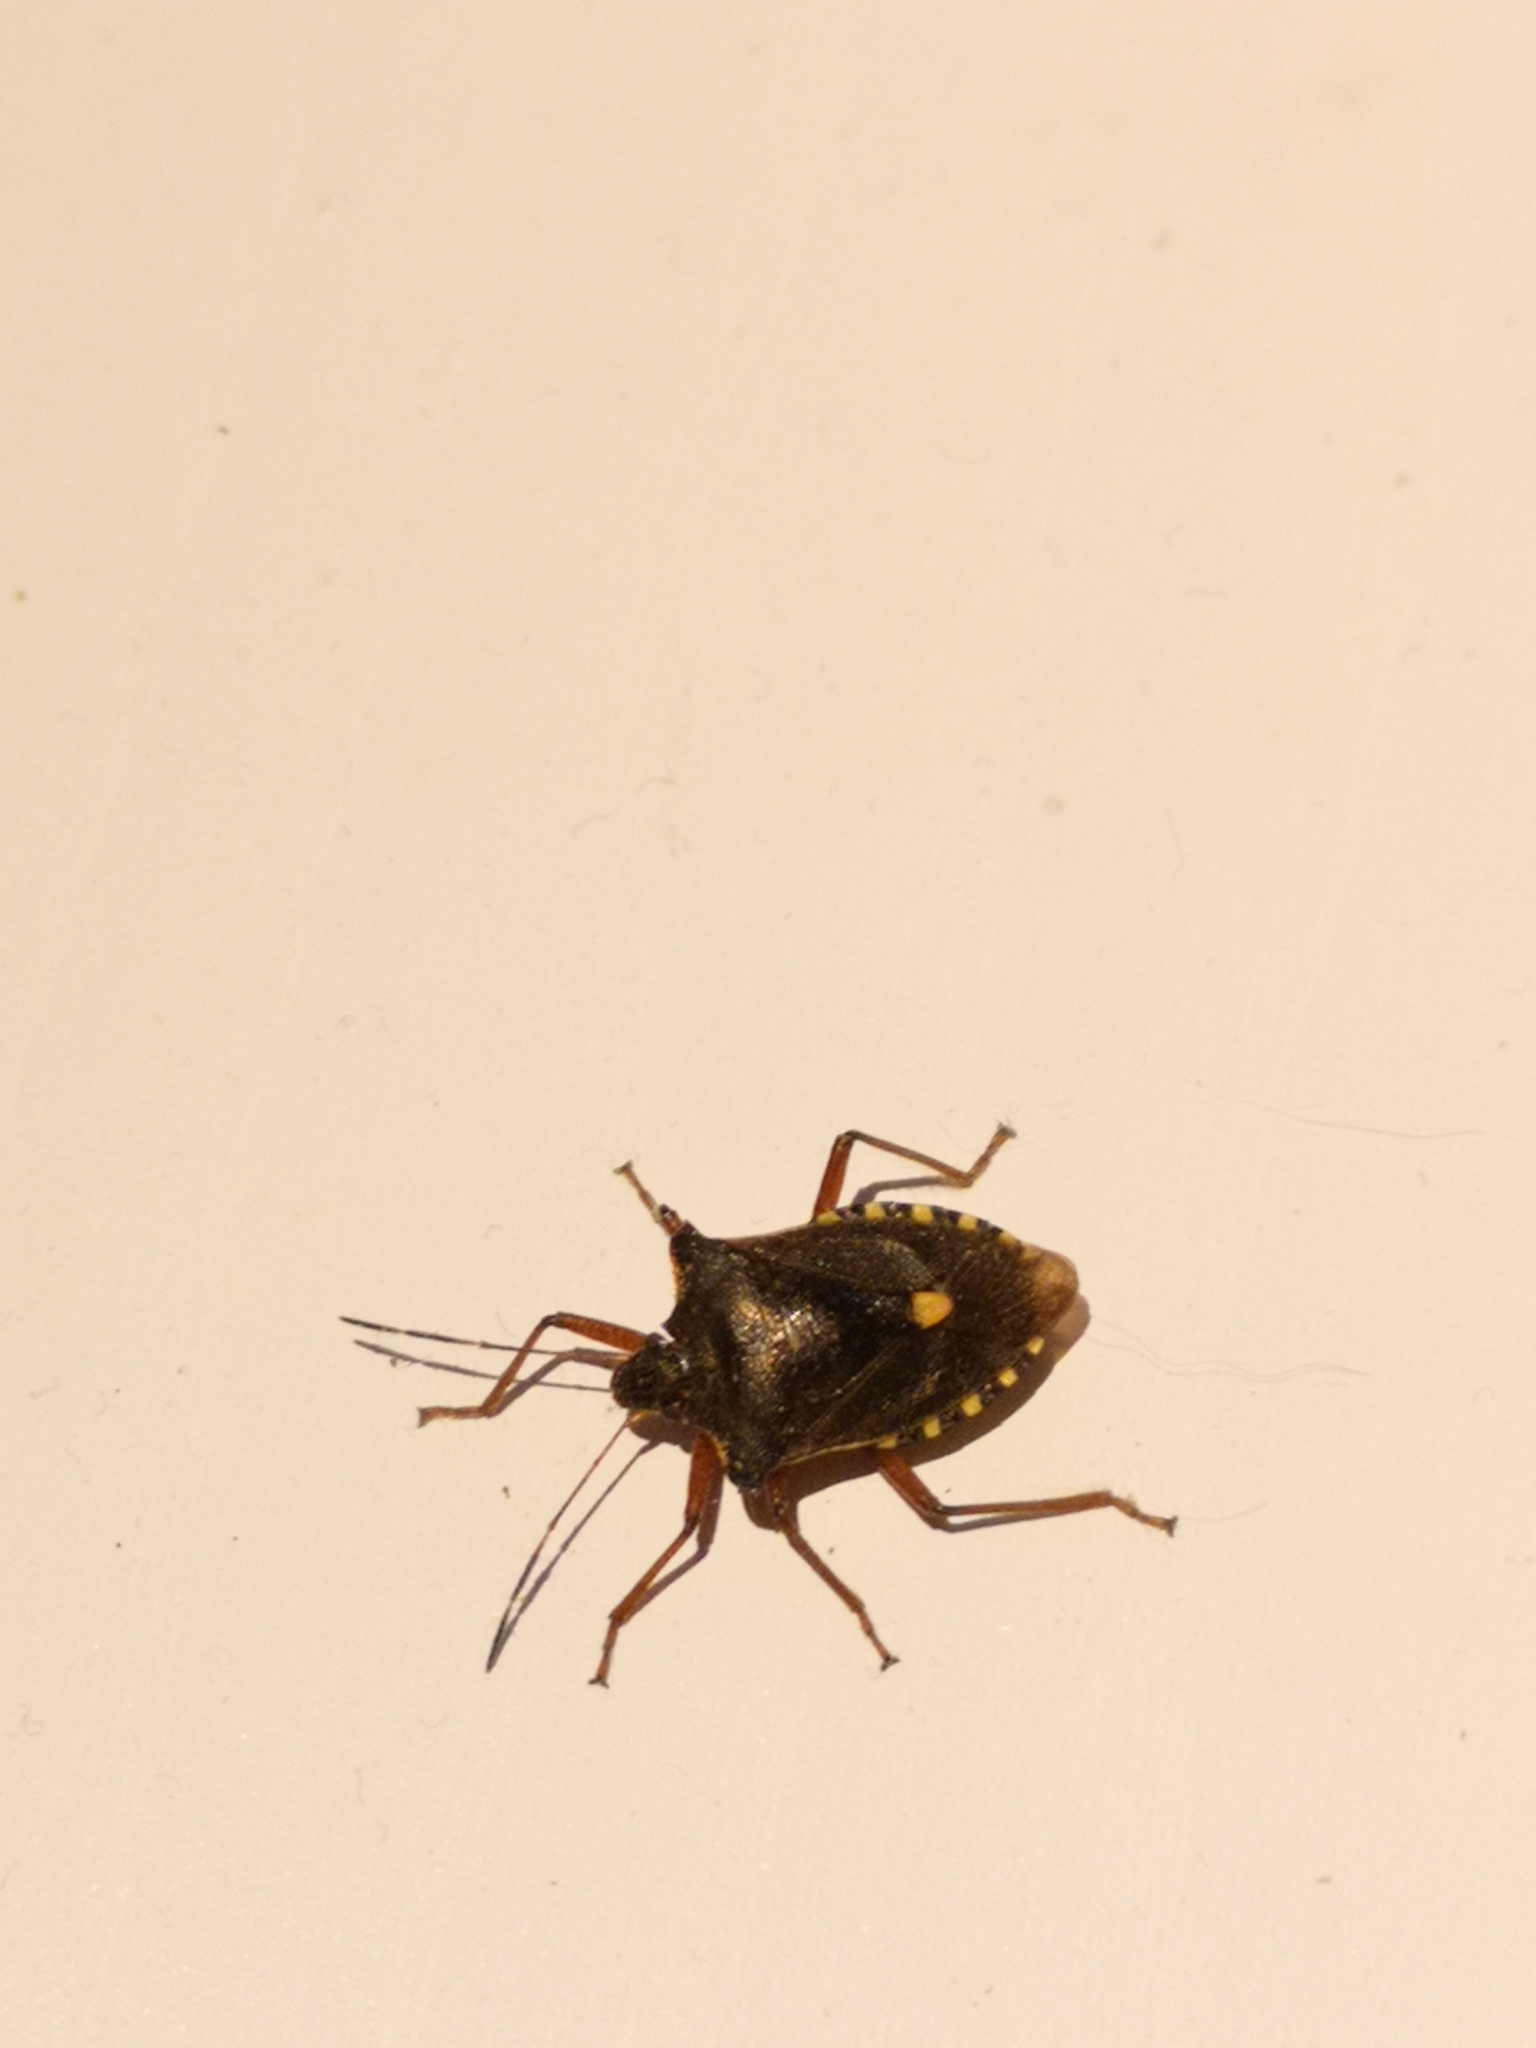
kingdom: Animalia
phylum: Arthropoda
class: Insecta
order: Hemiptera
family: Pentatomidae
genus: Pentatoma
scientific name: Pentatoma rufipes
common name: Forest bug
